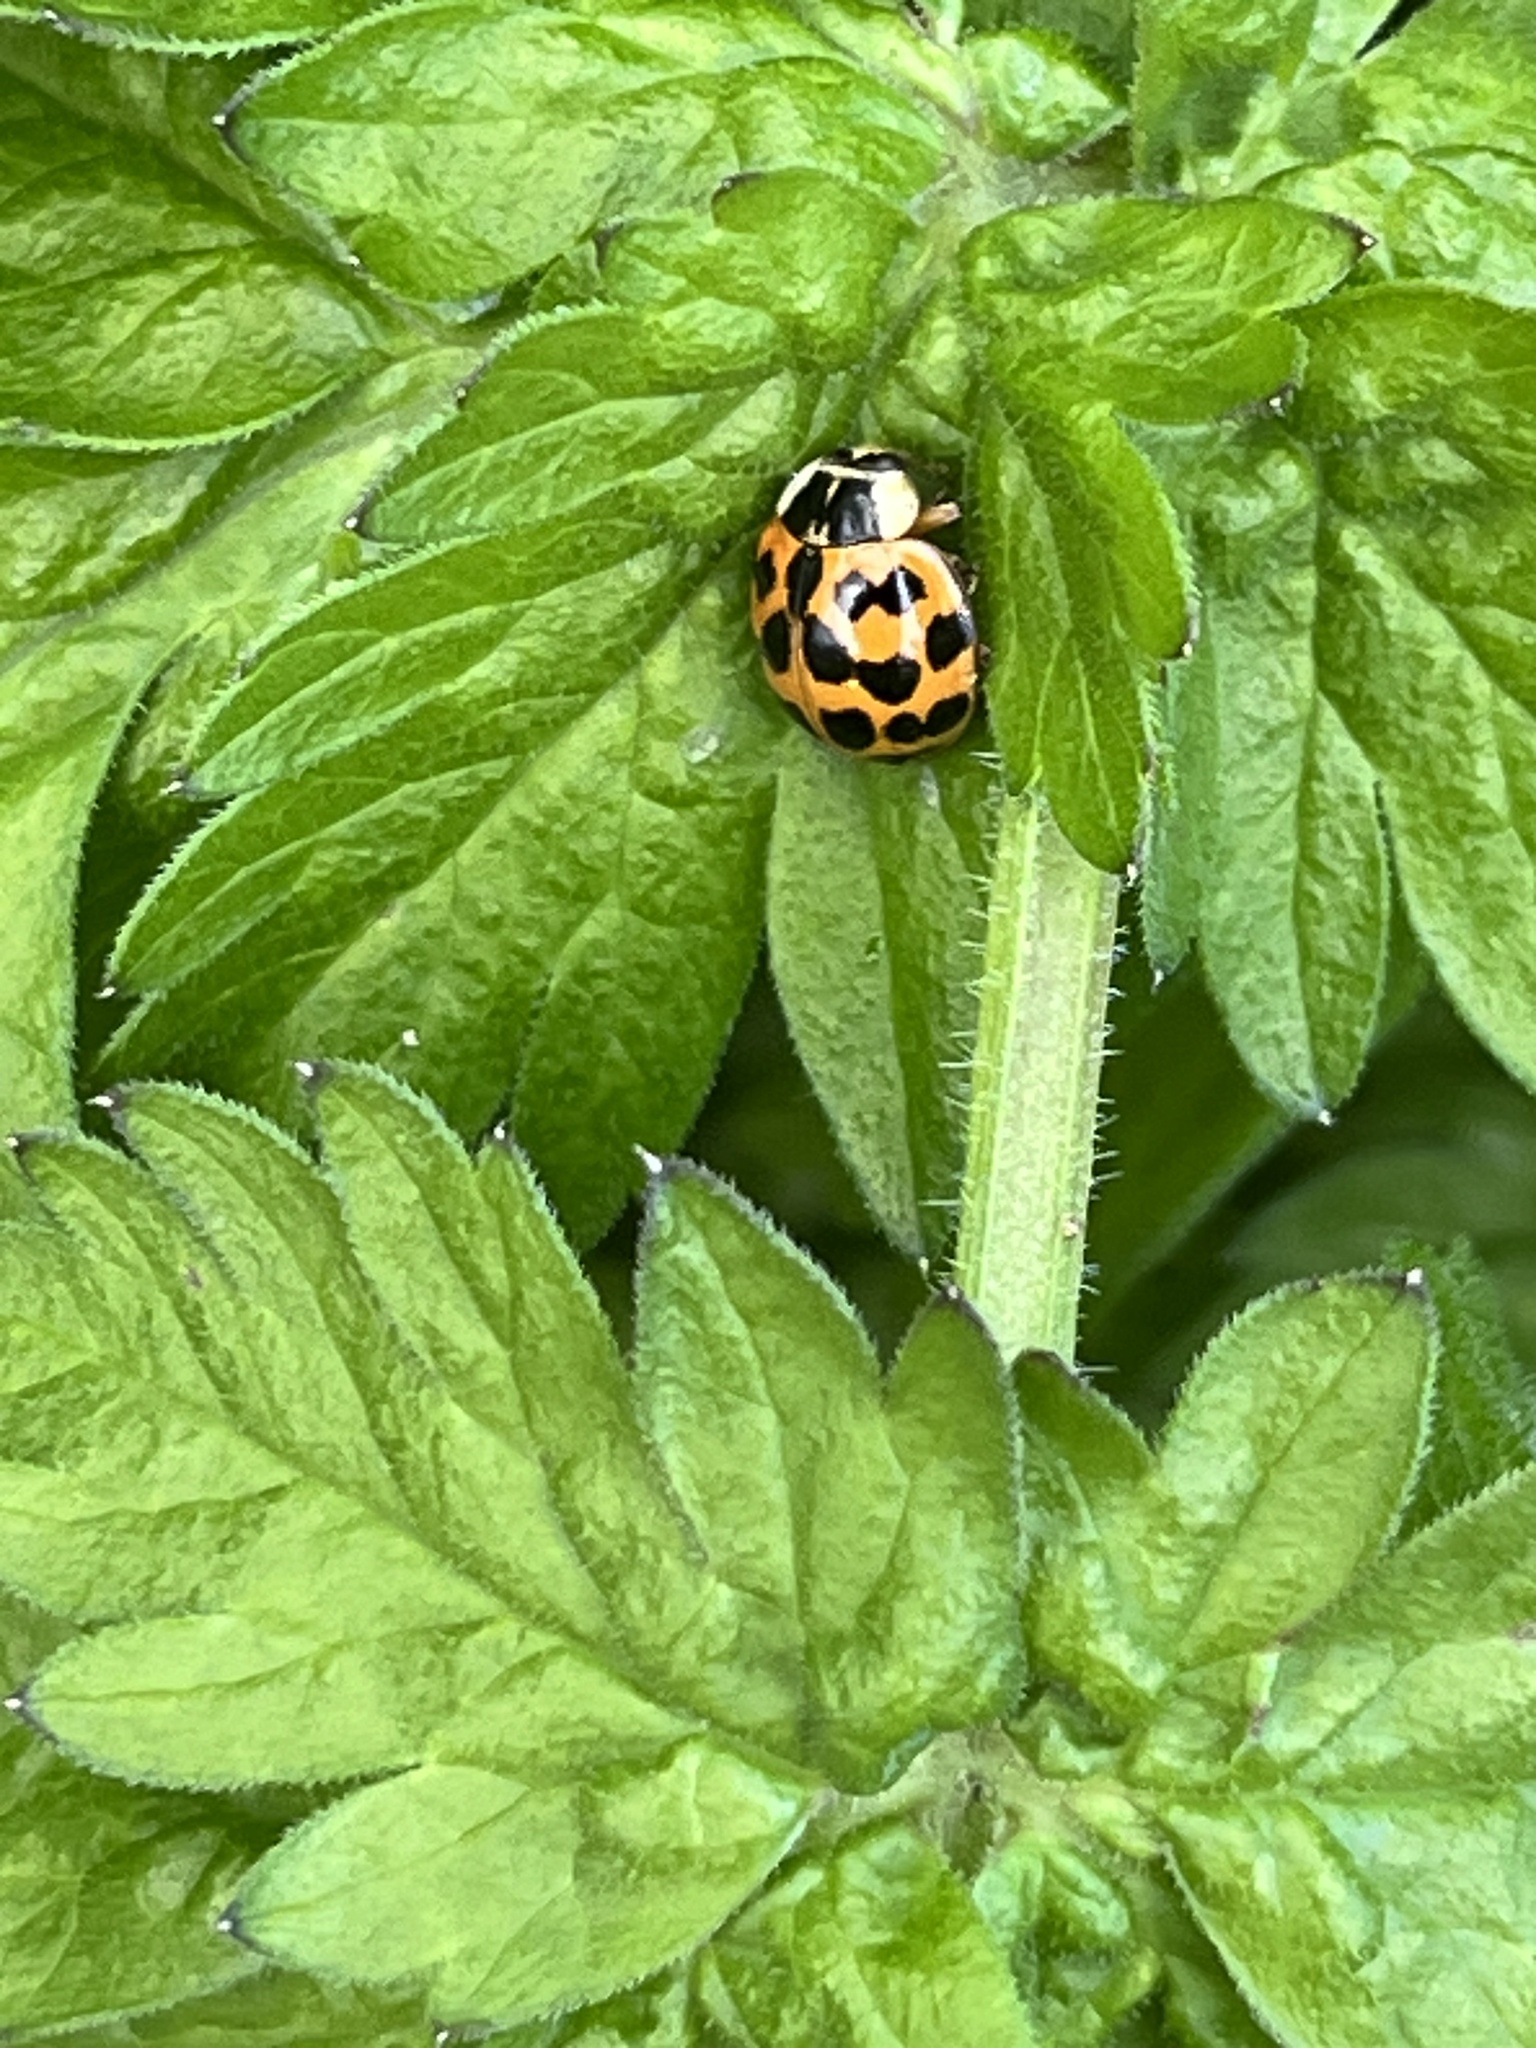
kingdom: Animalia
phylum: Arthropoda
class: Insecta
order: Coleoptera
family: Coccinellidae
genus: Harmonia
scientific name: Harmonia axyridis
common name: Harlequin ladybird
